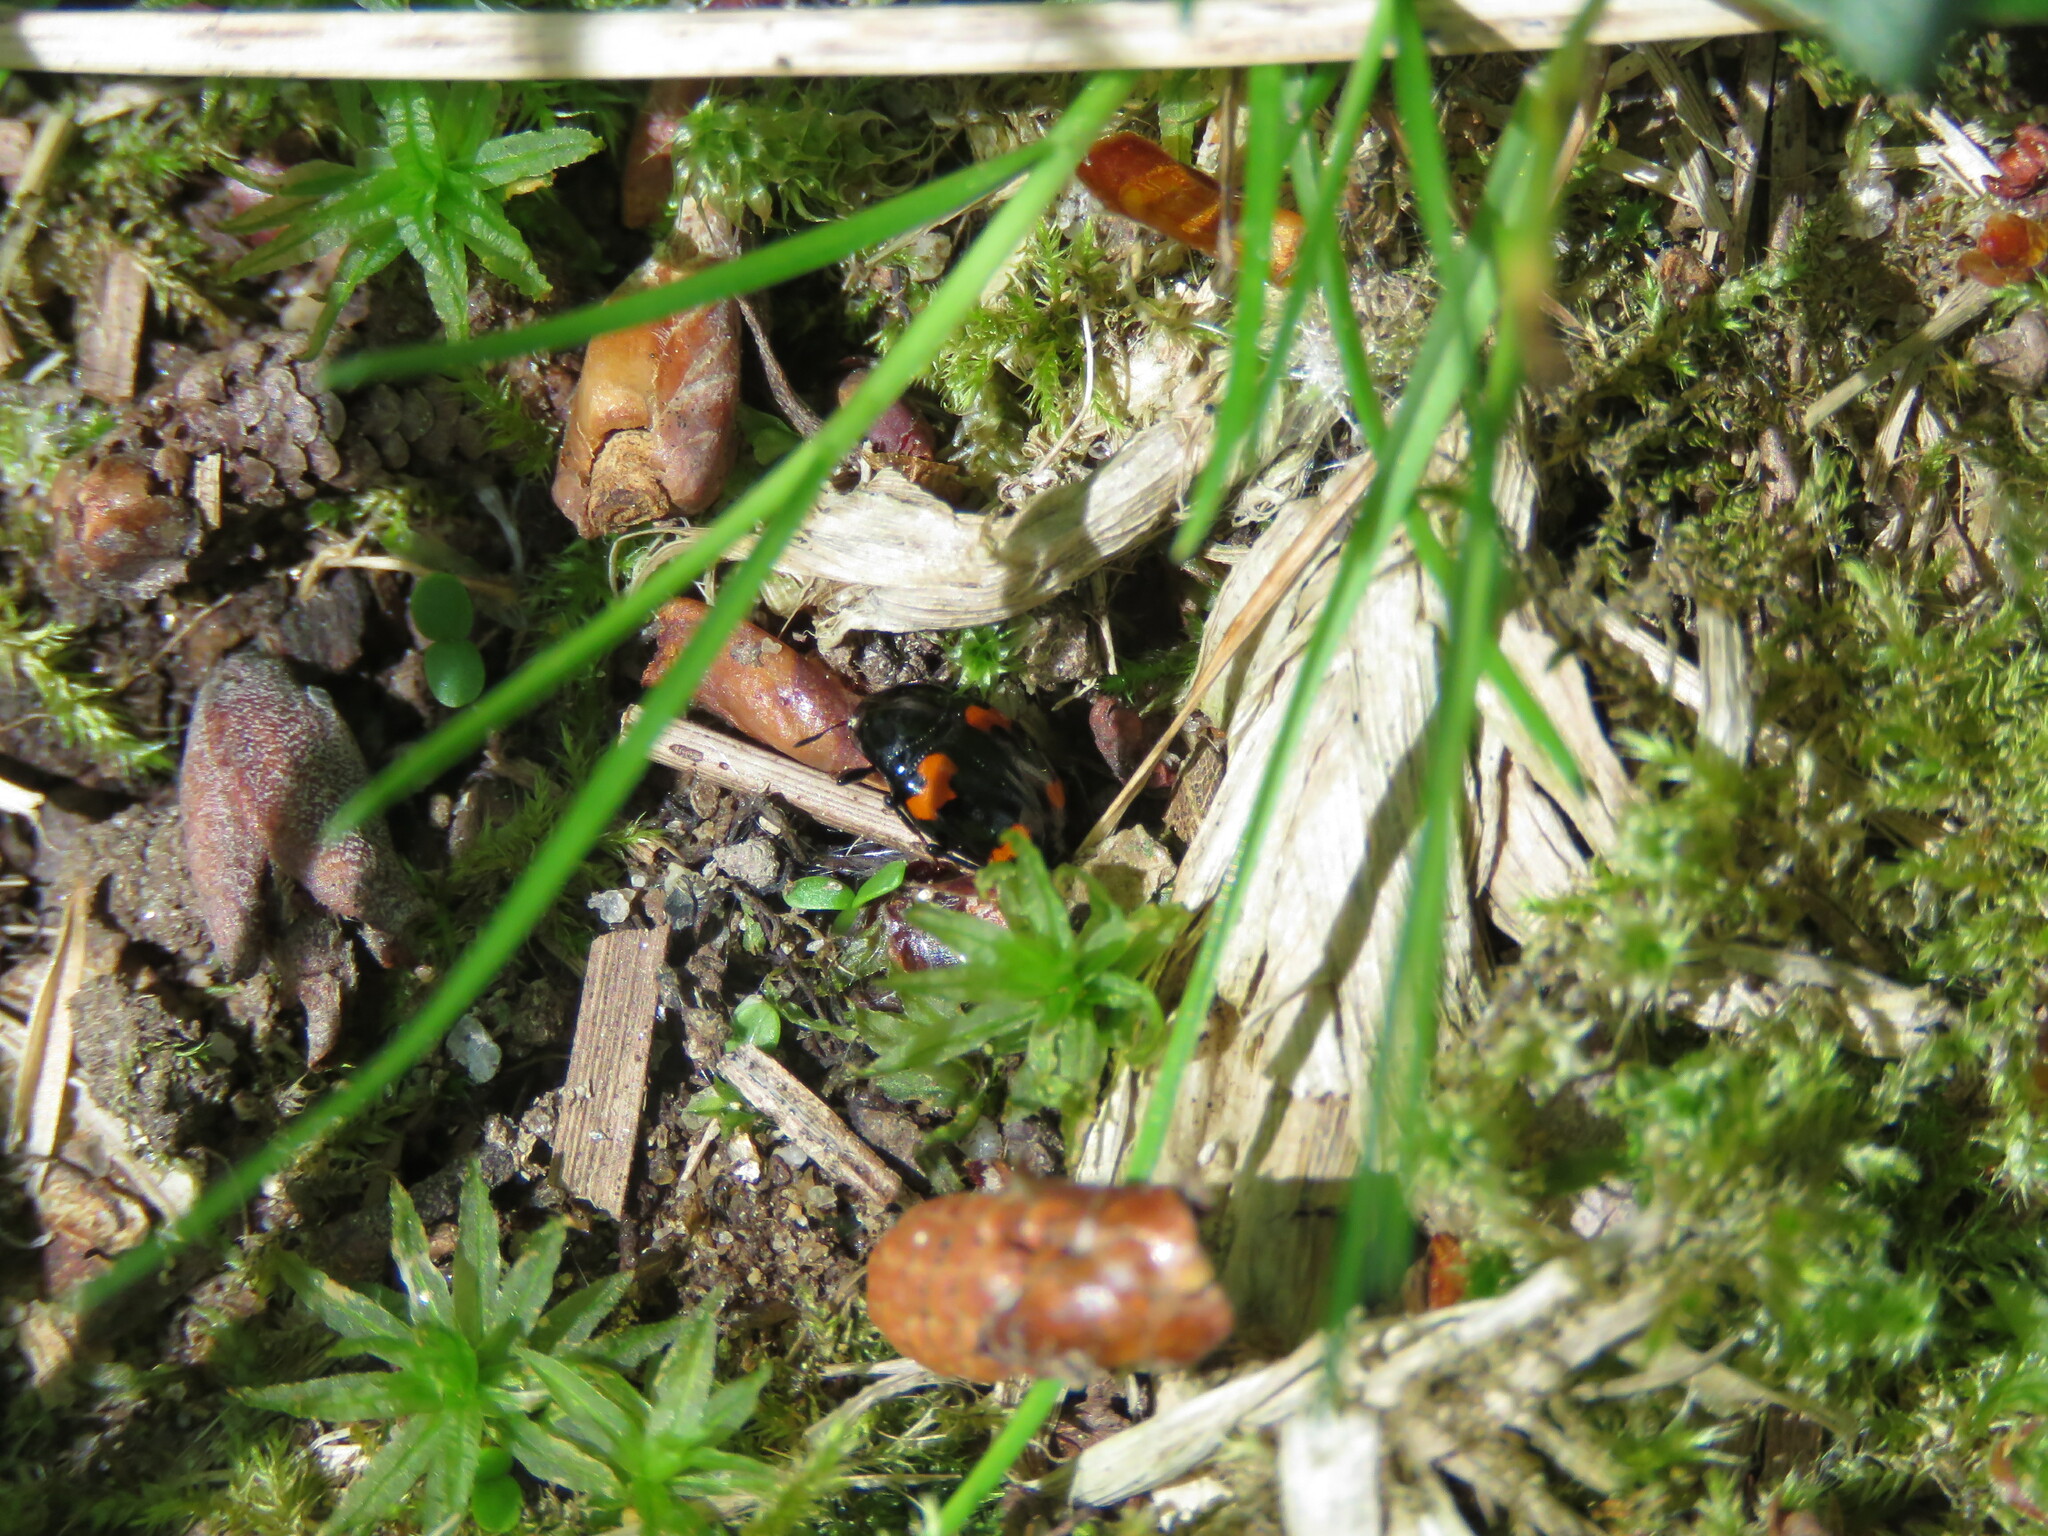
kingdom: Animalia
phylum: Arthropoda
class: Insecta
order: Coleoptera
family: Staphylinidae
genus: Scaphidium
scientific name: Scaphidium quadrimaculatum
